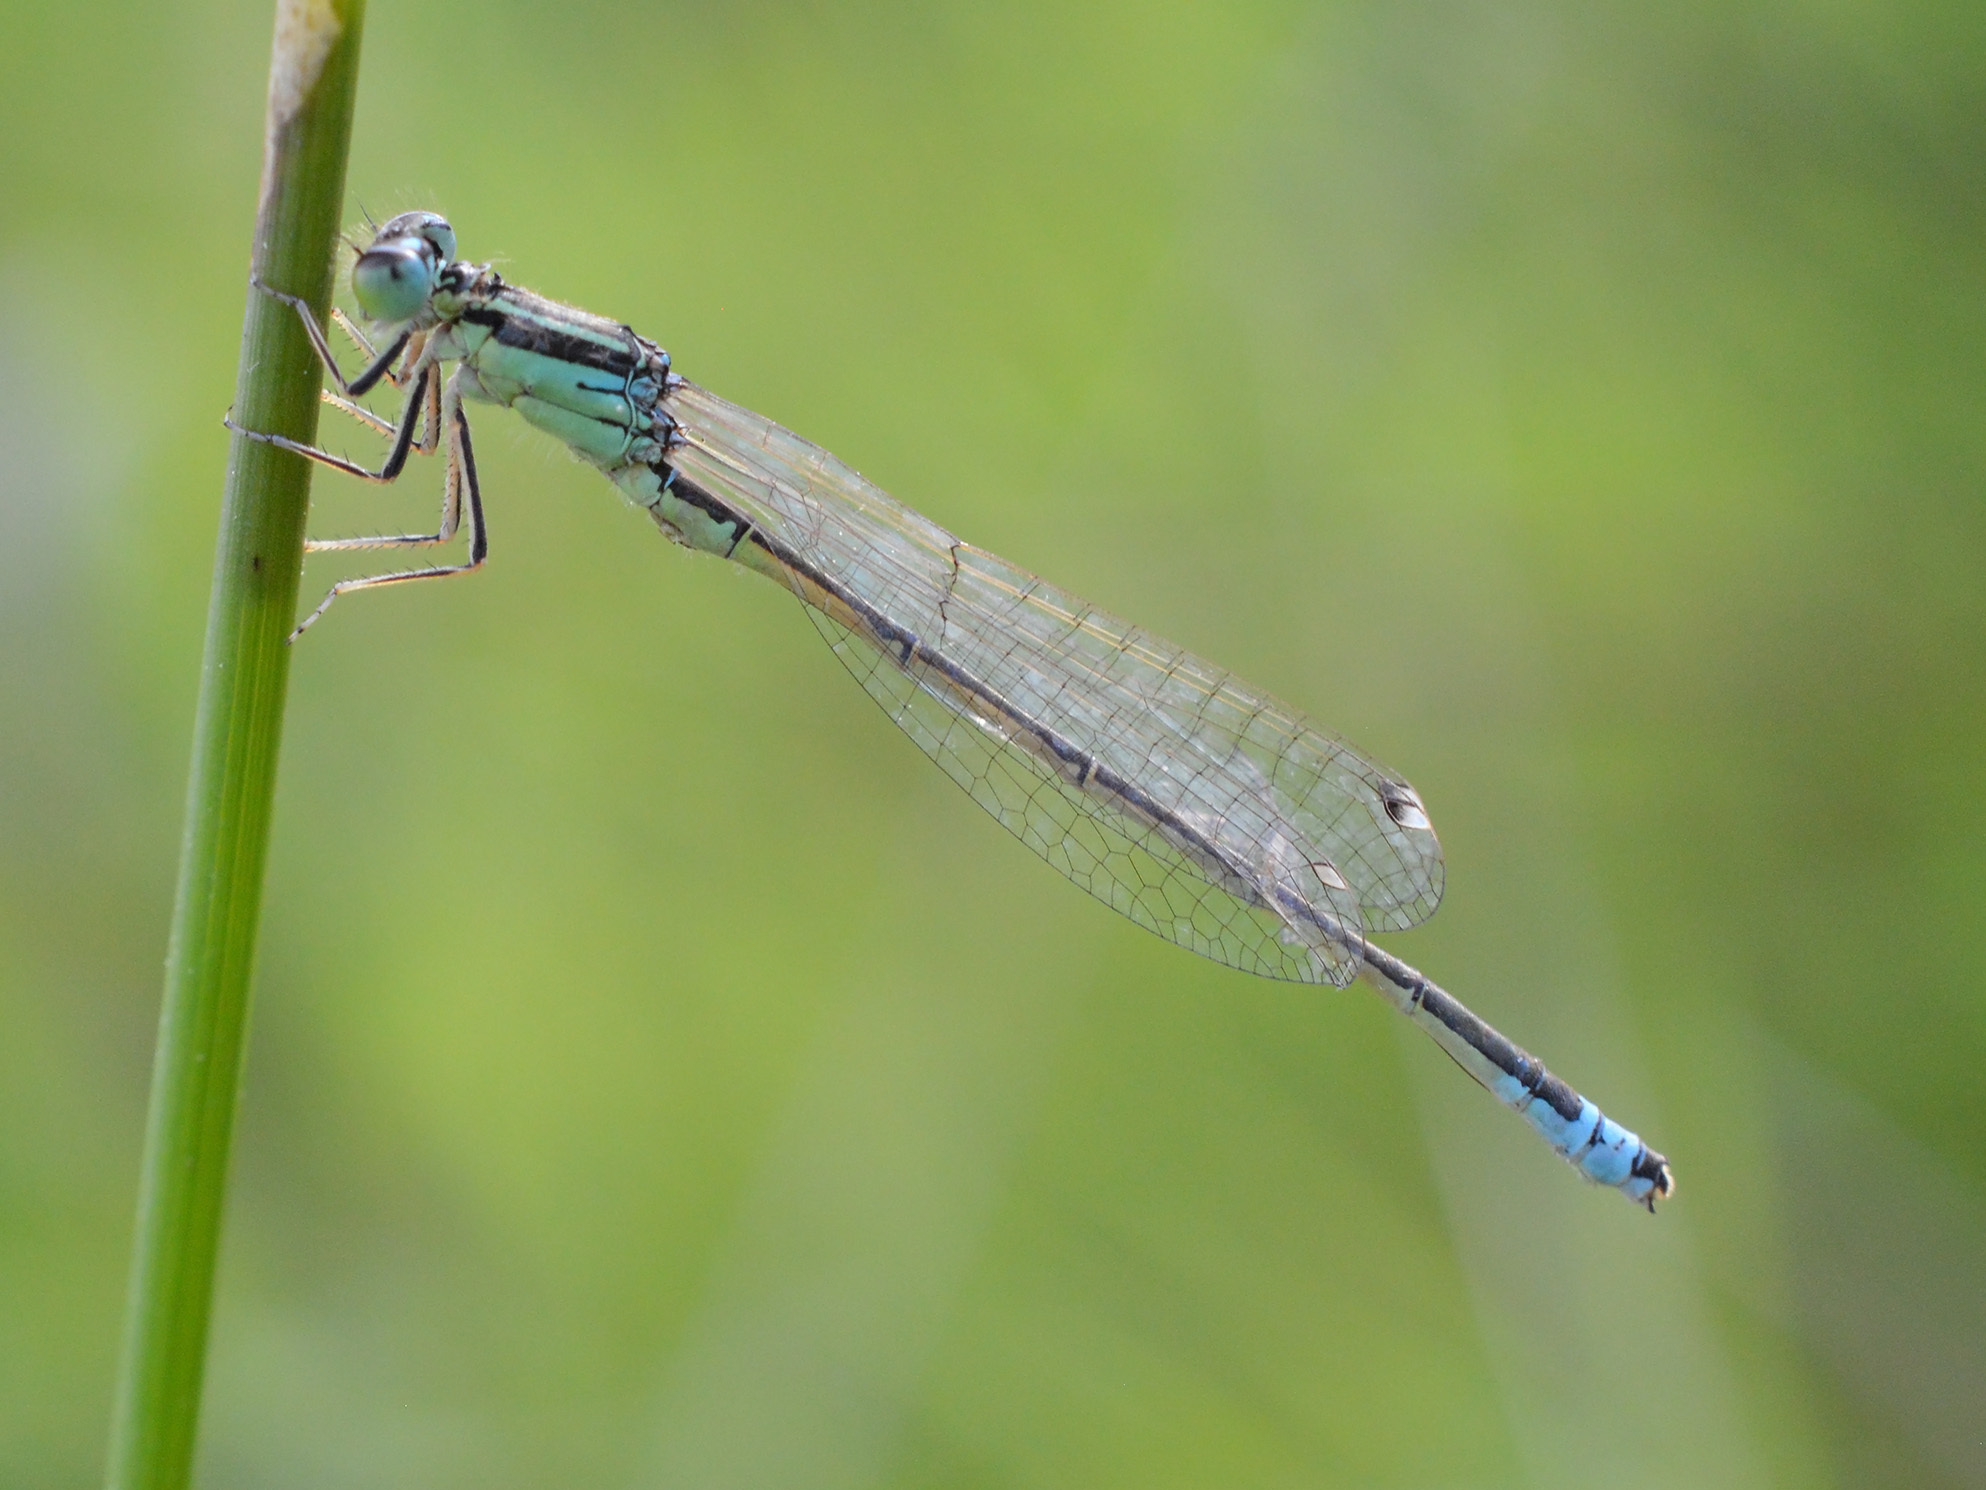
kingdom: Animalia
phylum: Arthropoda
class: Insecta
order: Odonata
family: Coenagrionidae
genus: Ischnura
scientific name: Ischnura pumilio
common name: Scarce blue-tailed damselfly
